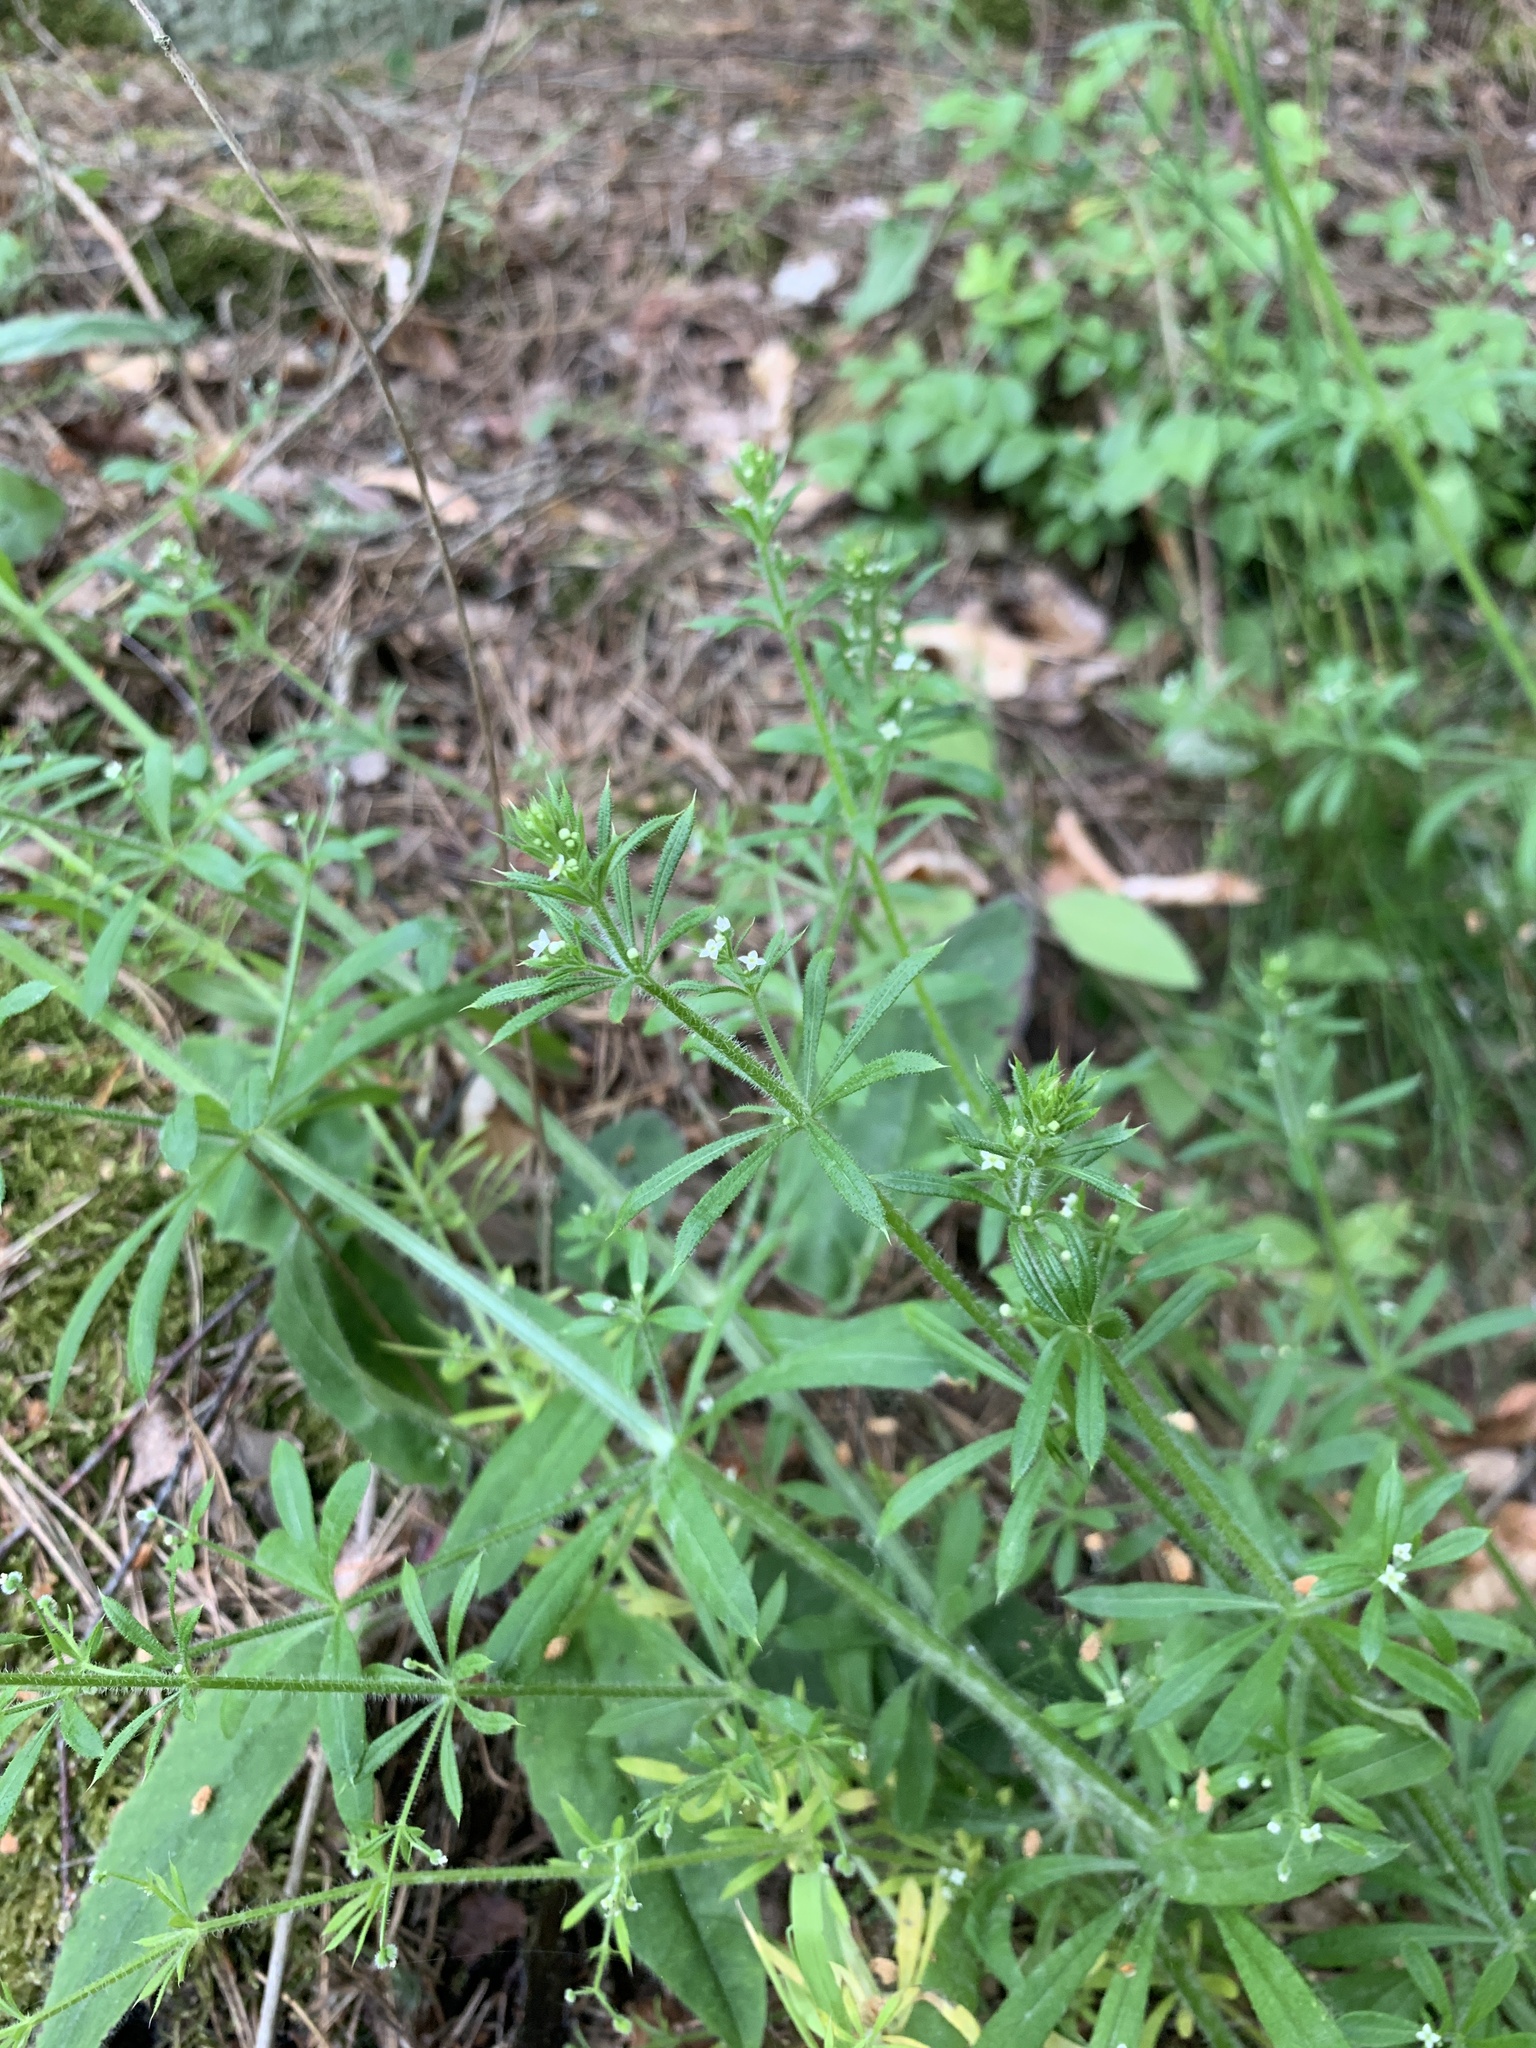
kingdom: Plantae
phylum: Tracheophyta
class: Magnoliopsida
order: Gentianales
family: Rubiaceae
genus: Galium
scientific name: Galium aparine
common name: Cleavers
